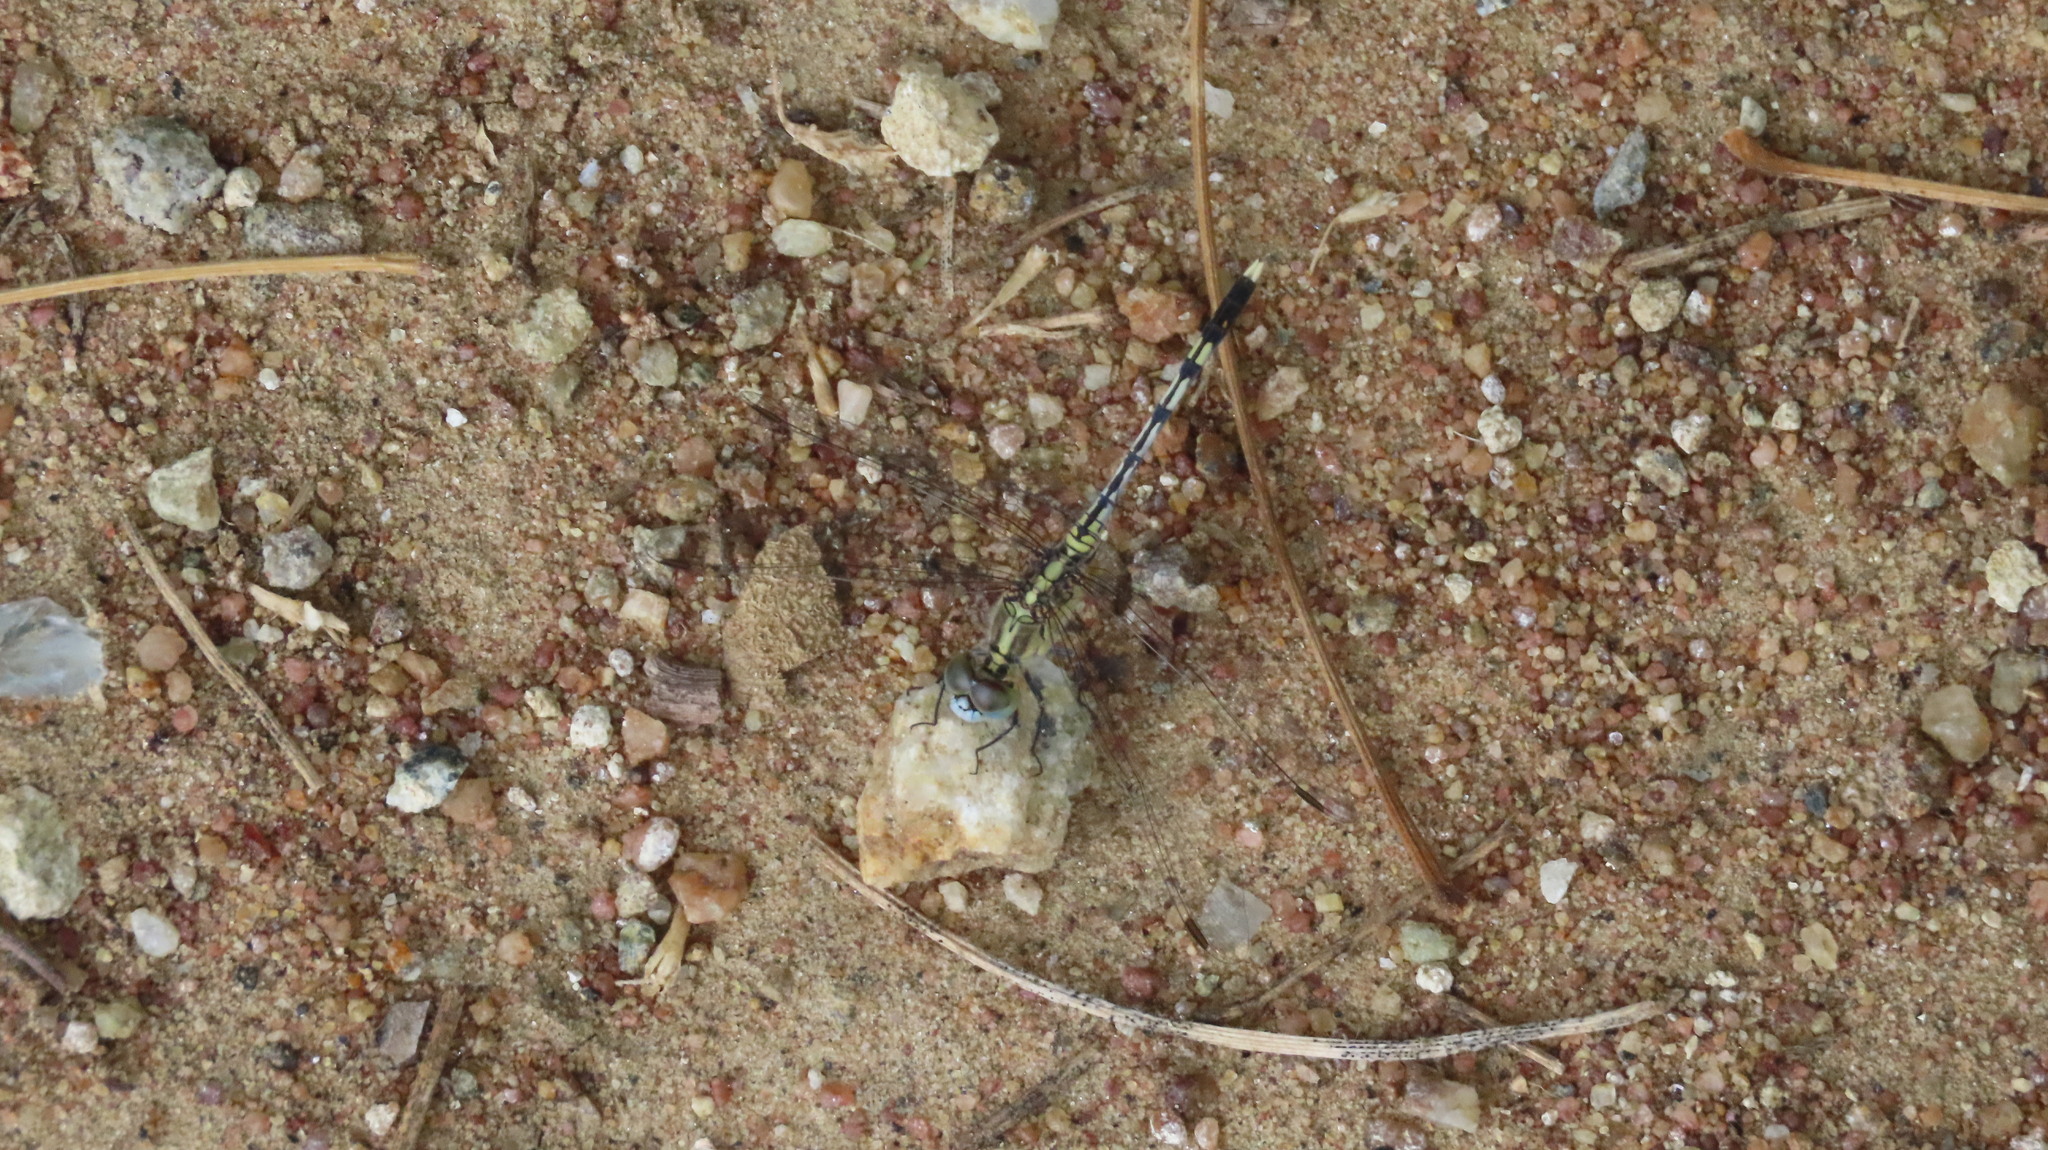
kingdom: Animalia
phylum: Arthropoda
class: Insecta
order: Odonata
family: Libellulidae
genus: Diplacodes
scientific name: Diplacodes trivialis
